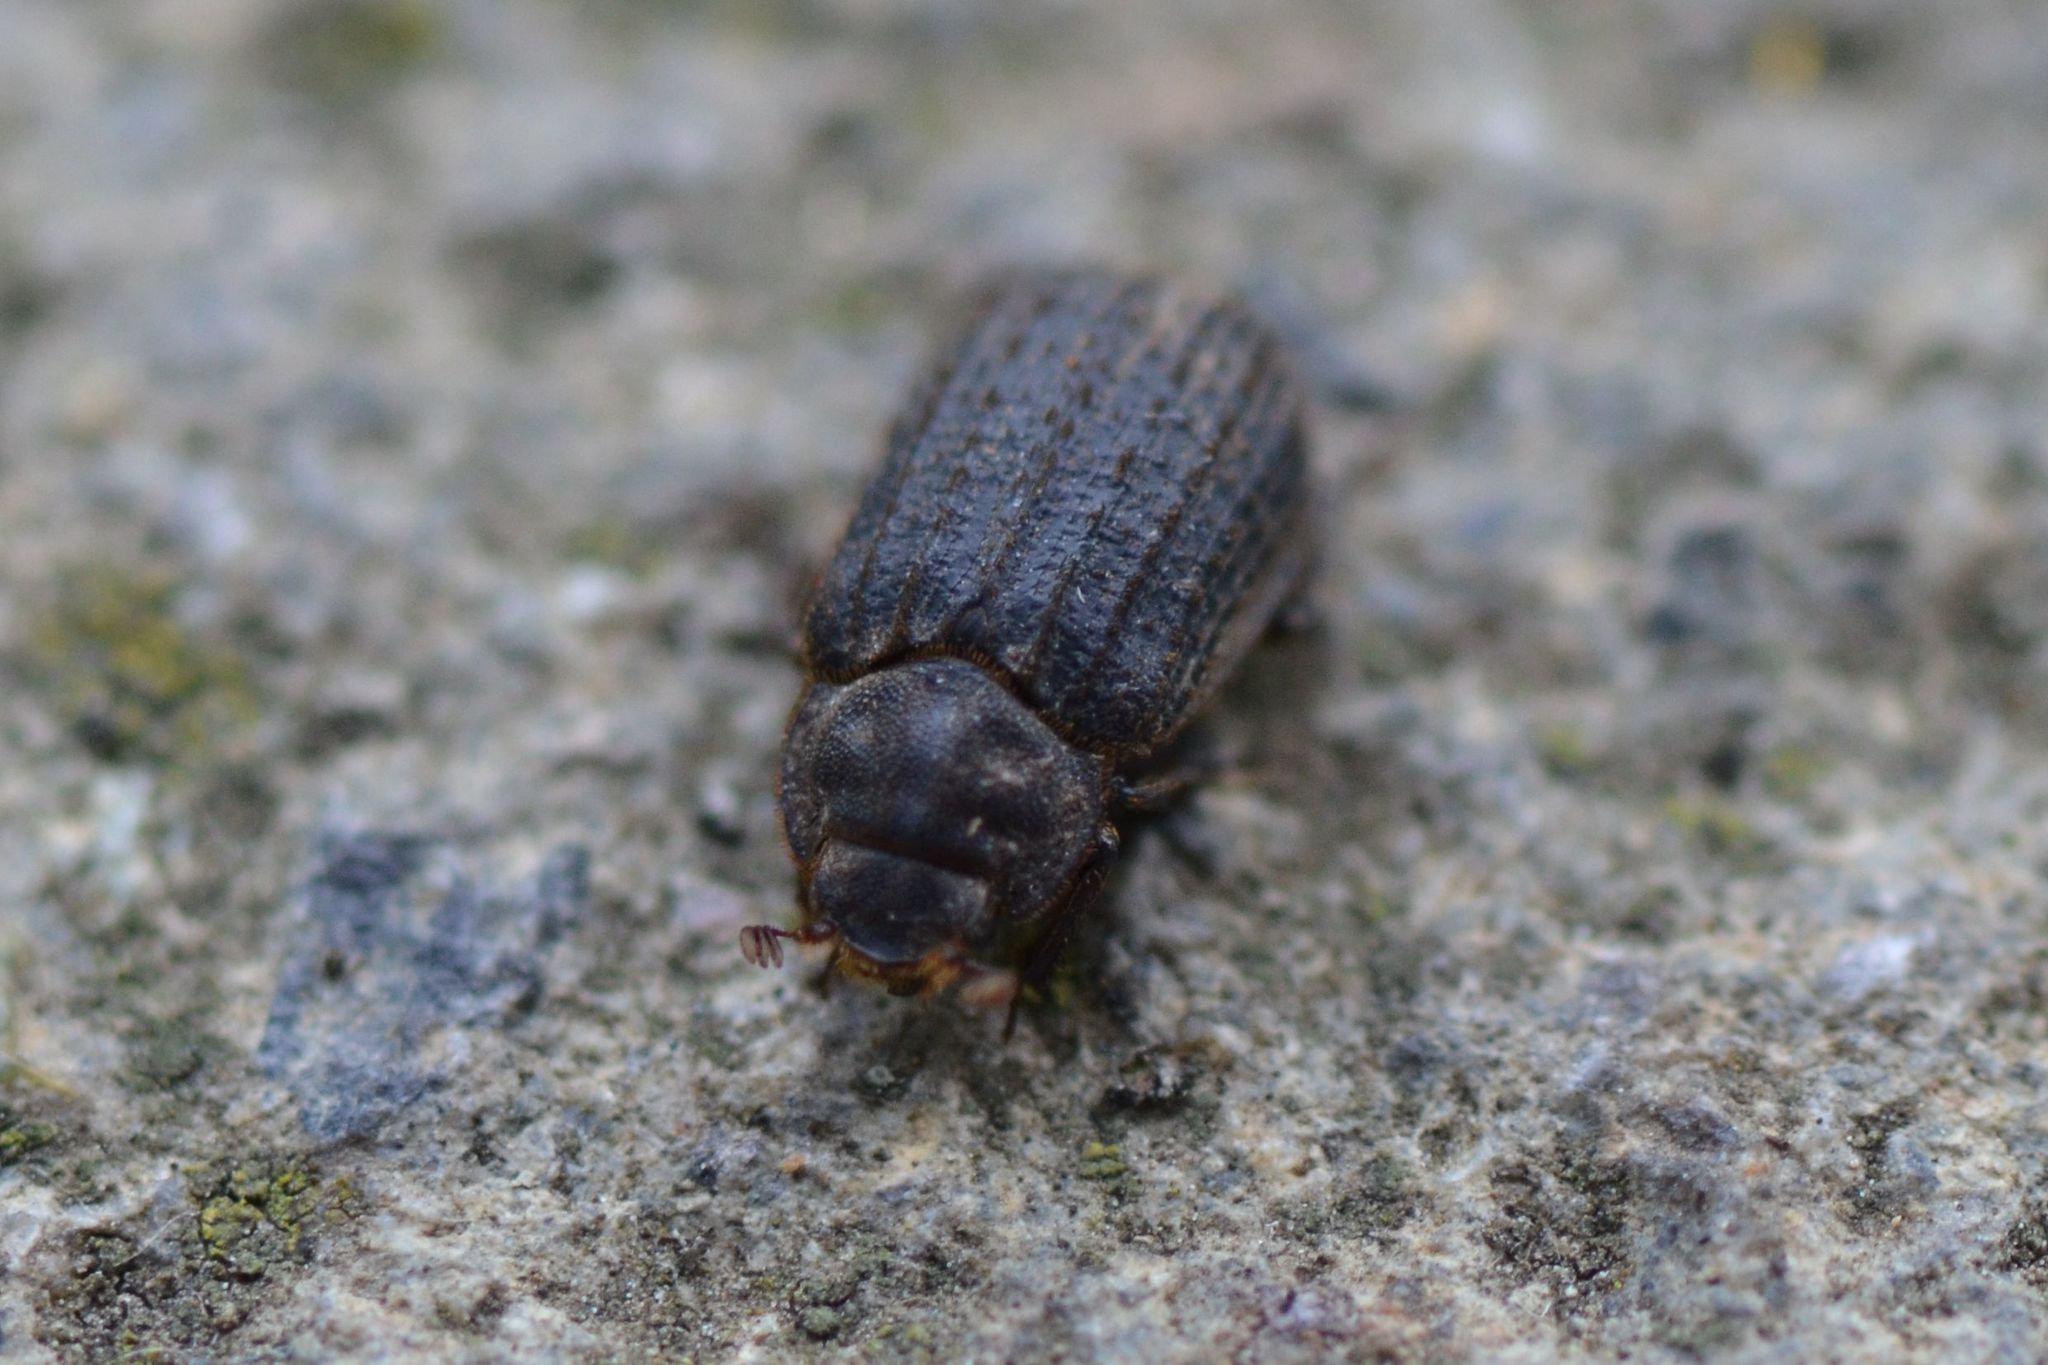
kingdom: Animalia
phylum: Arthropoda
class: Insecta
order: Coleoptera
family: Trogidae
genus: Trox
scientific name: Trox scaber
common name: Hide beetle
